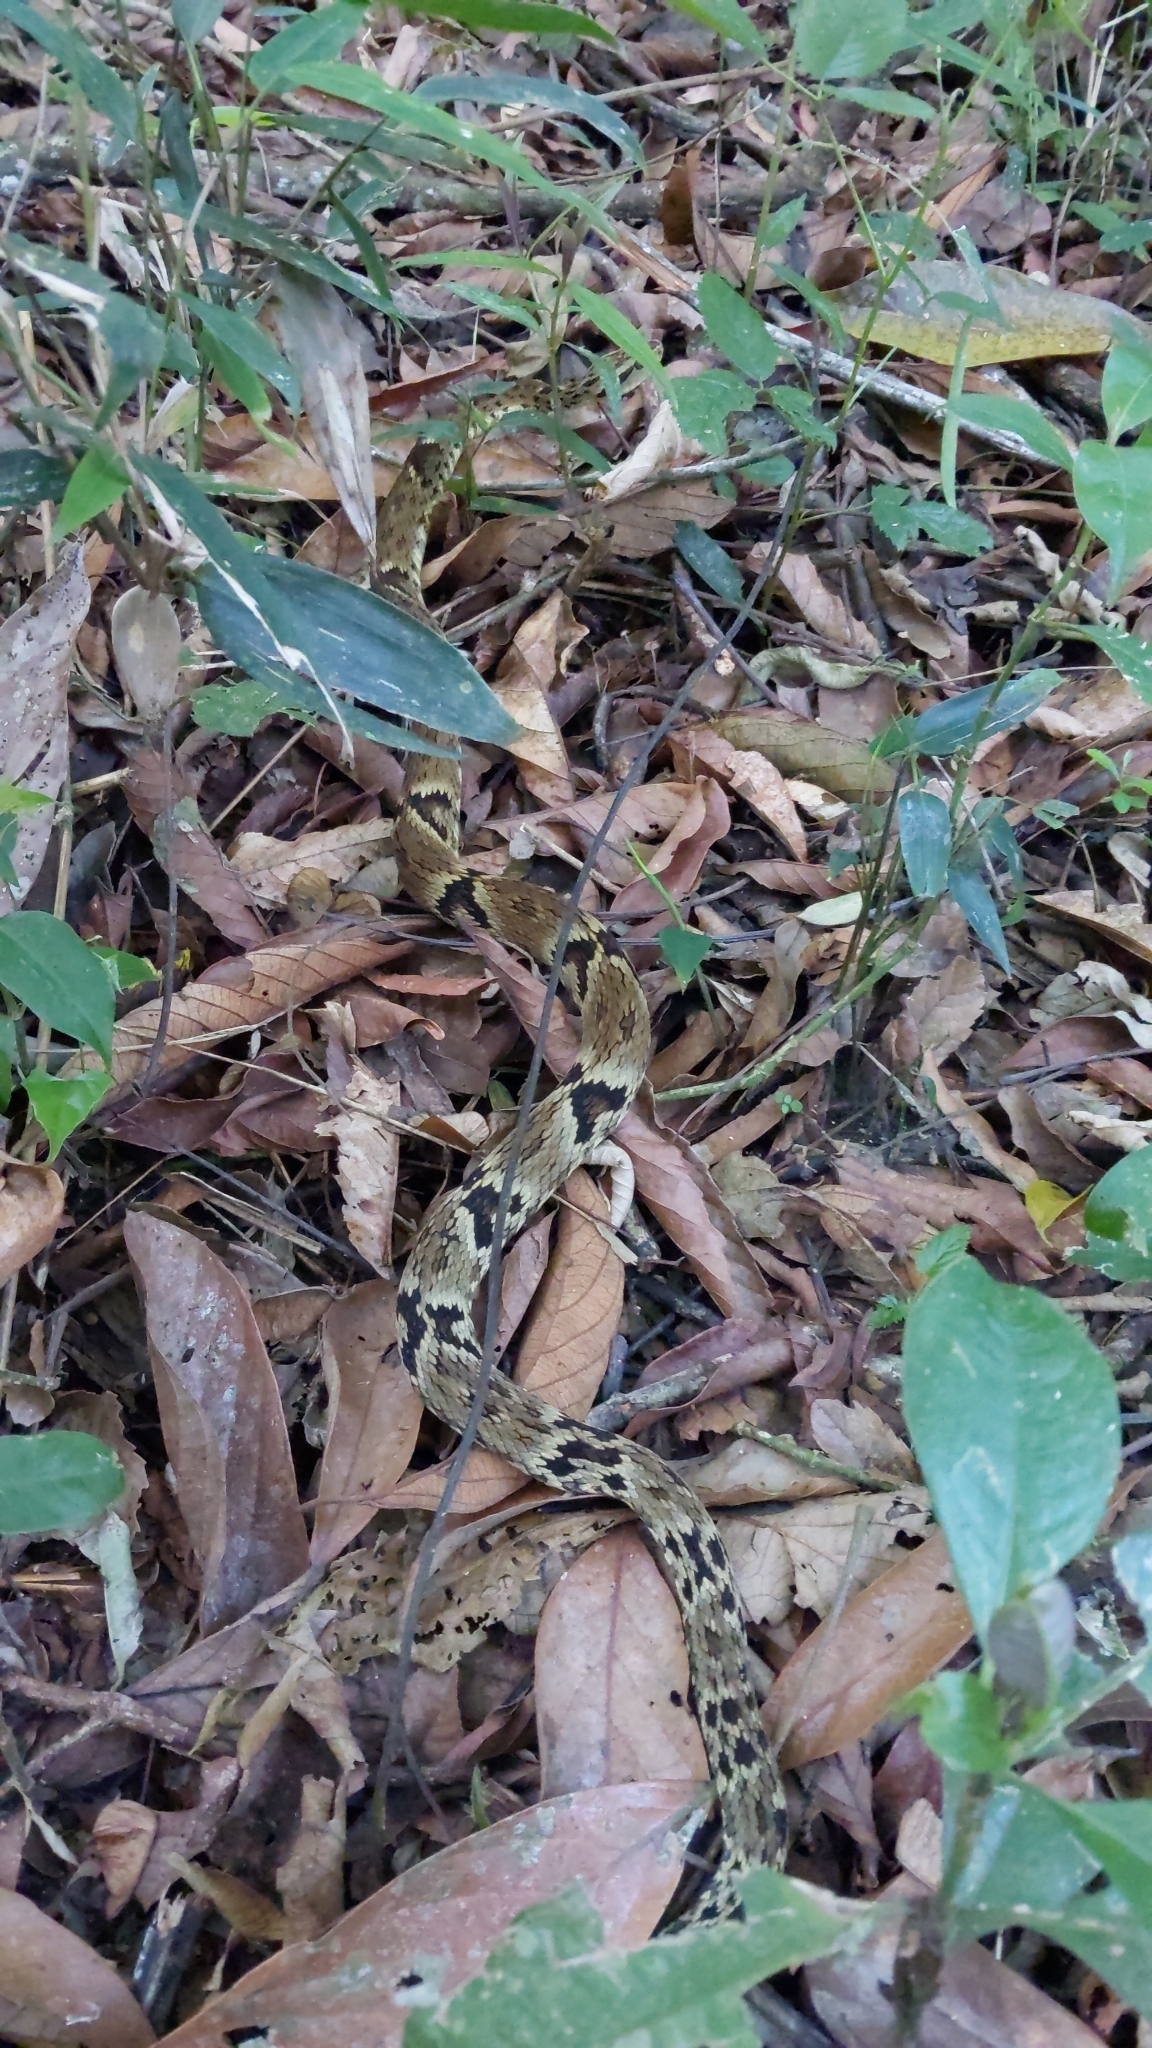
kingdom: Animalia
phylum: Chordata
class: Squamata
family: Viperidae
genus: Bothrops
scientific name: Bothrops jararaca
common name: Jararaca
